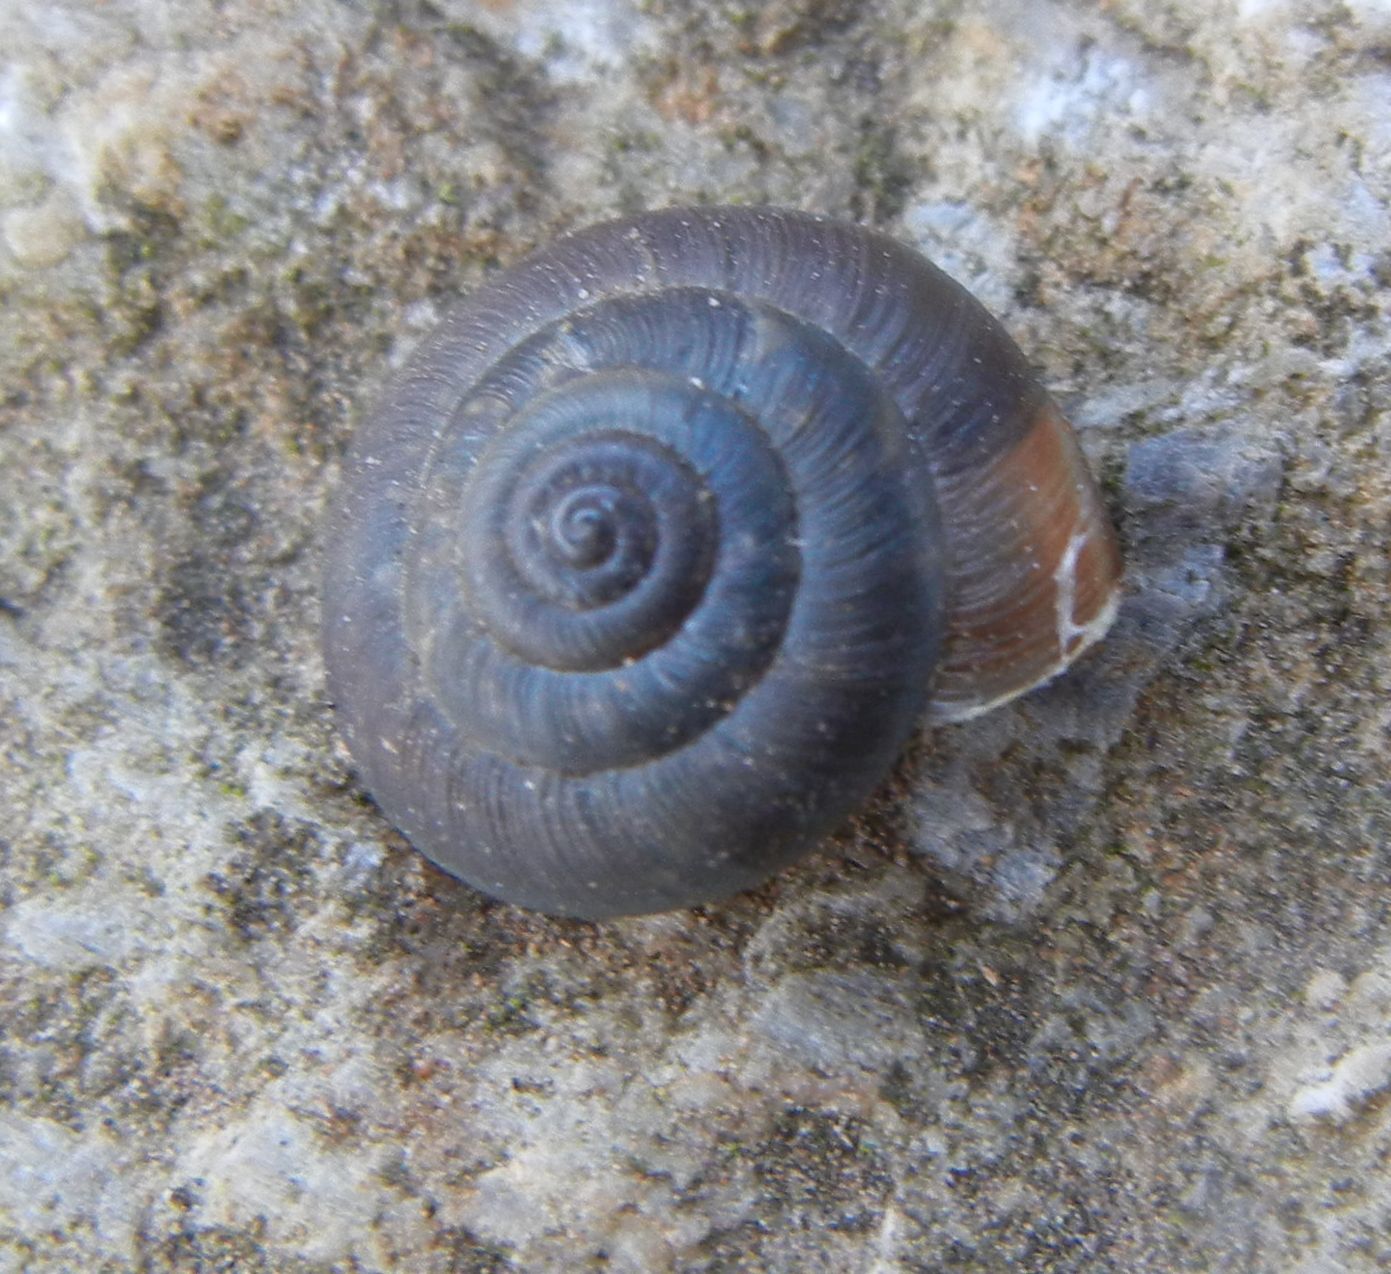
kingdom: Animalia
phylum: Mollusca
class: Gastropoda
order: Stylommatophora
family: Hygromiidae
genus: Trochulus
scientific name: Trochulus striolatus
